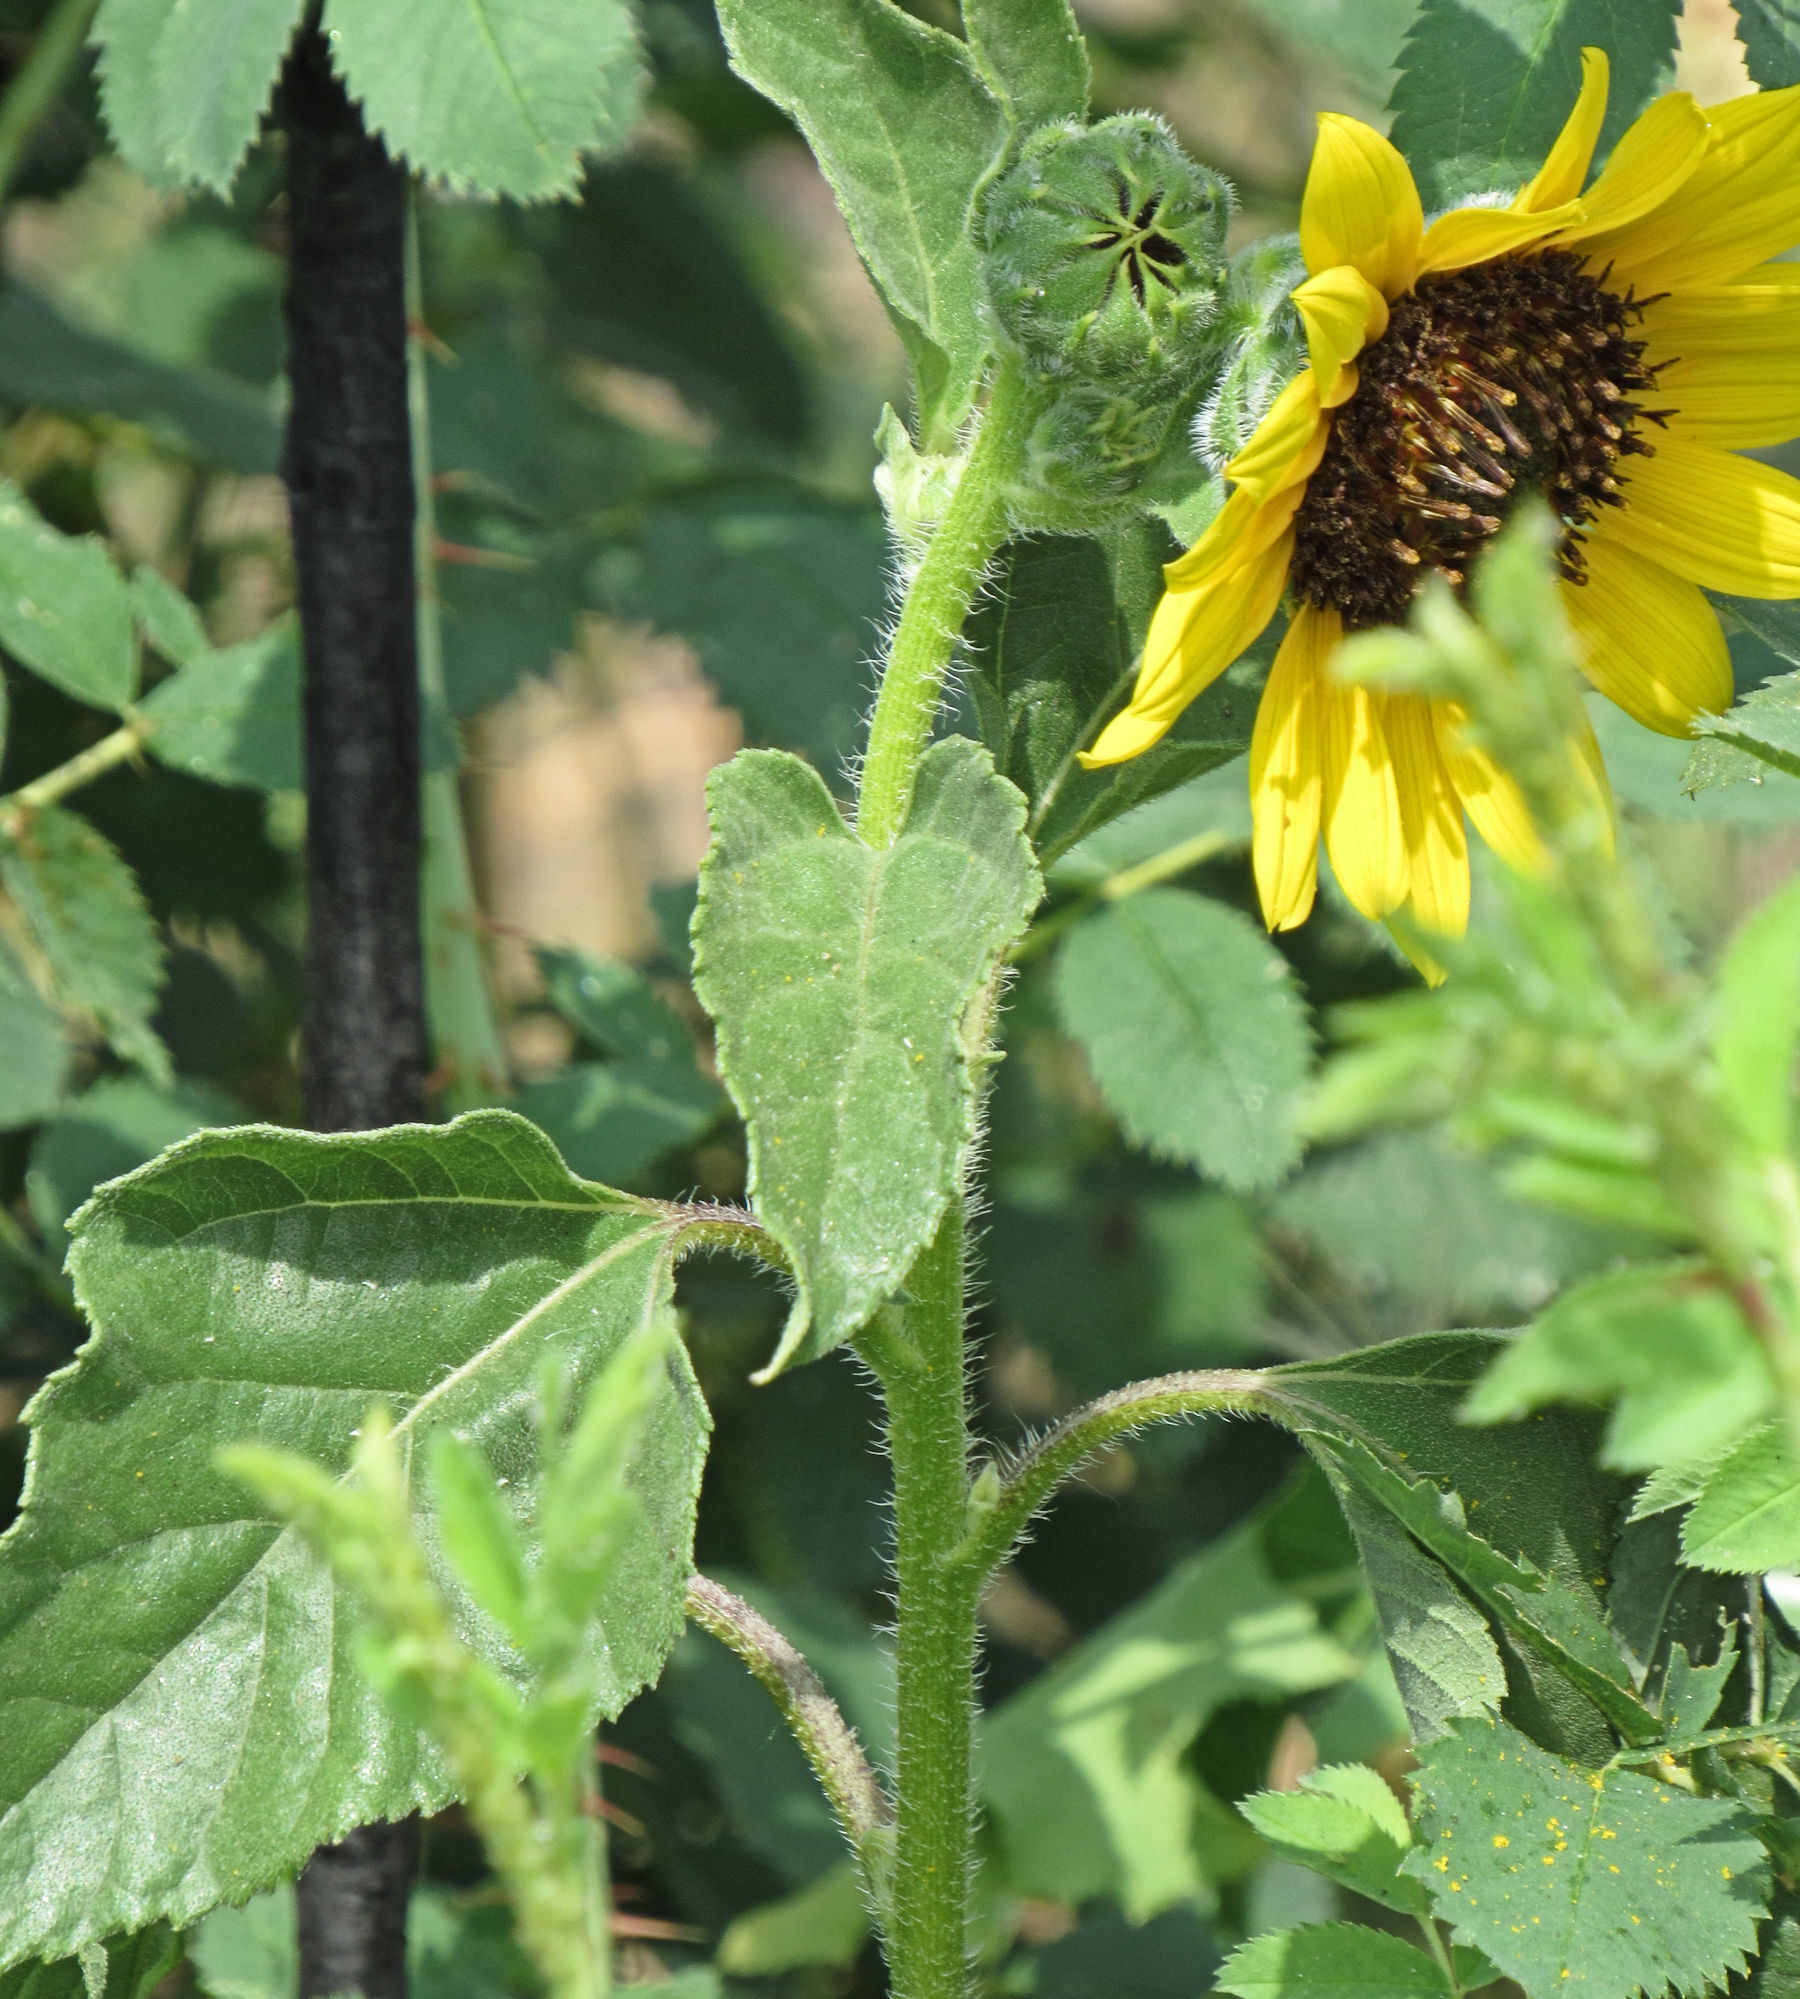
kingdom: Plantae
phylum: Tracheophyta
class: Magnoliopsida
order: Asterales
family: Asteraceae
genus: Helianthus
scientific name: Helianthus annuus
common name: Sunflower
